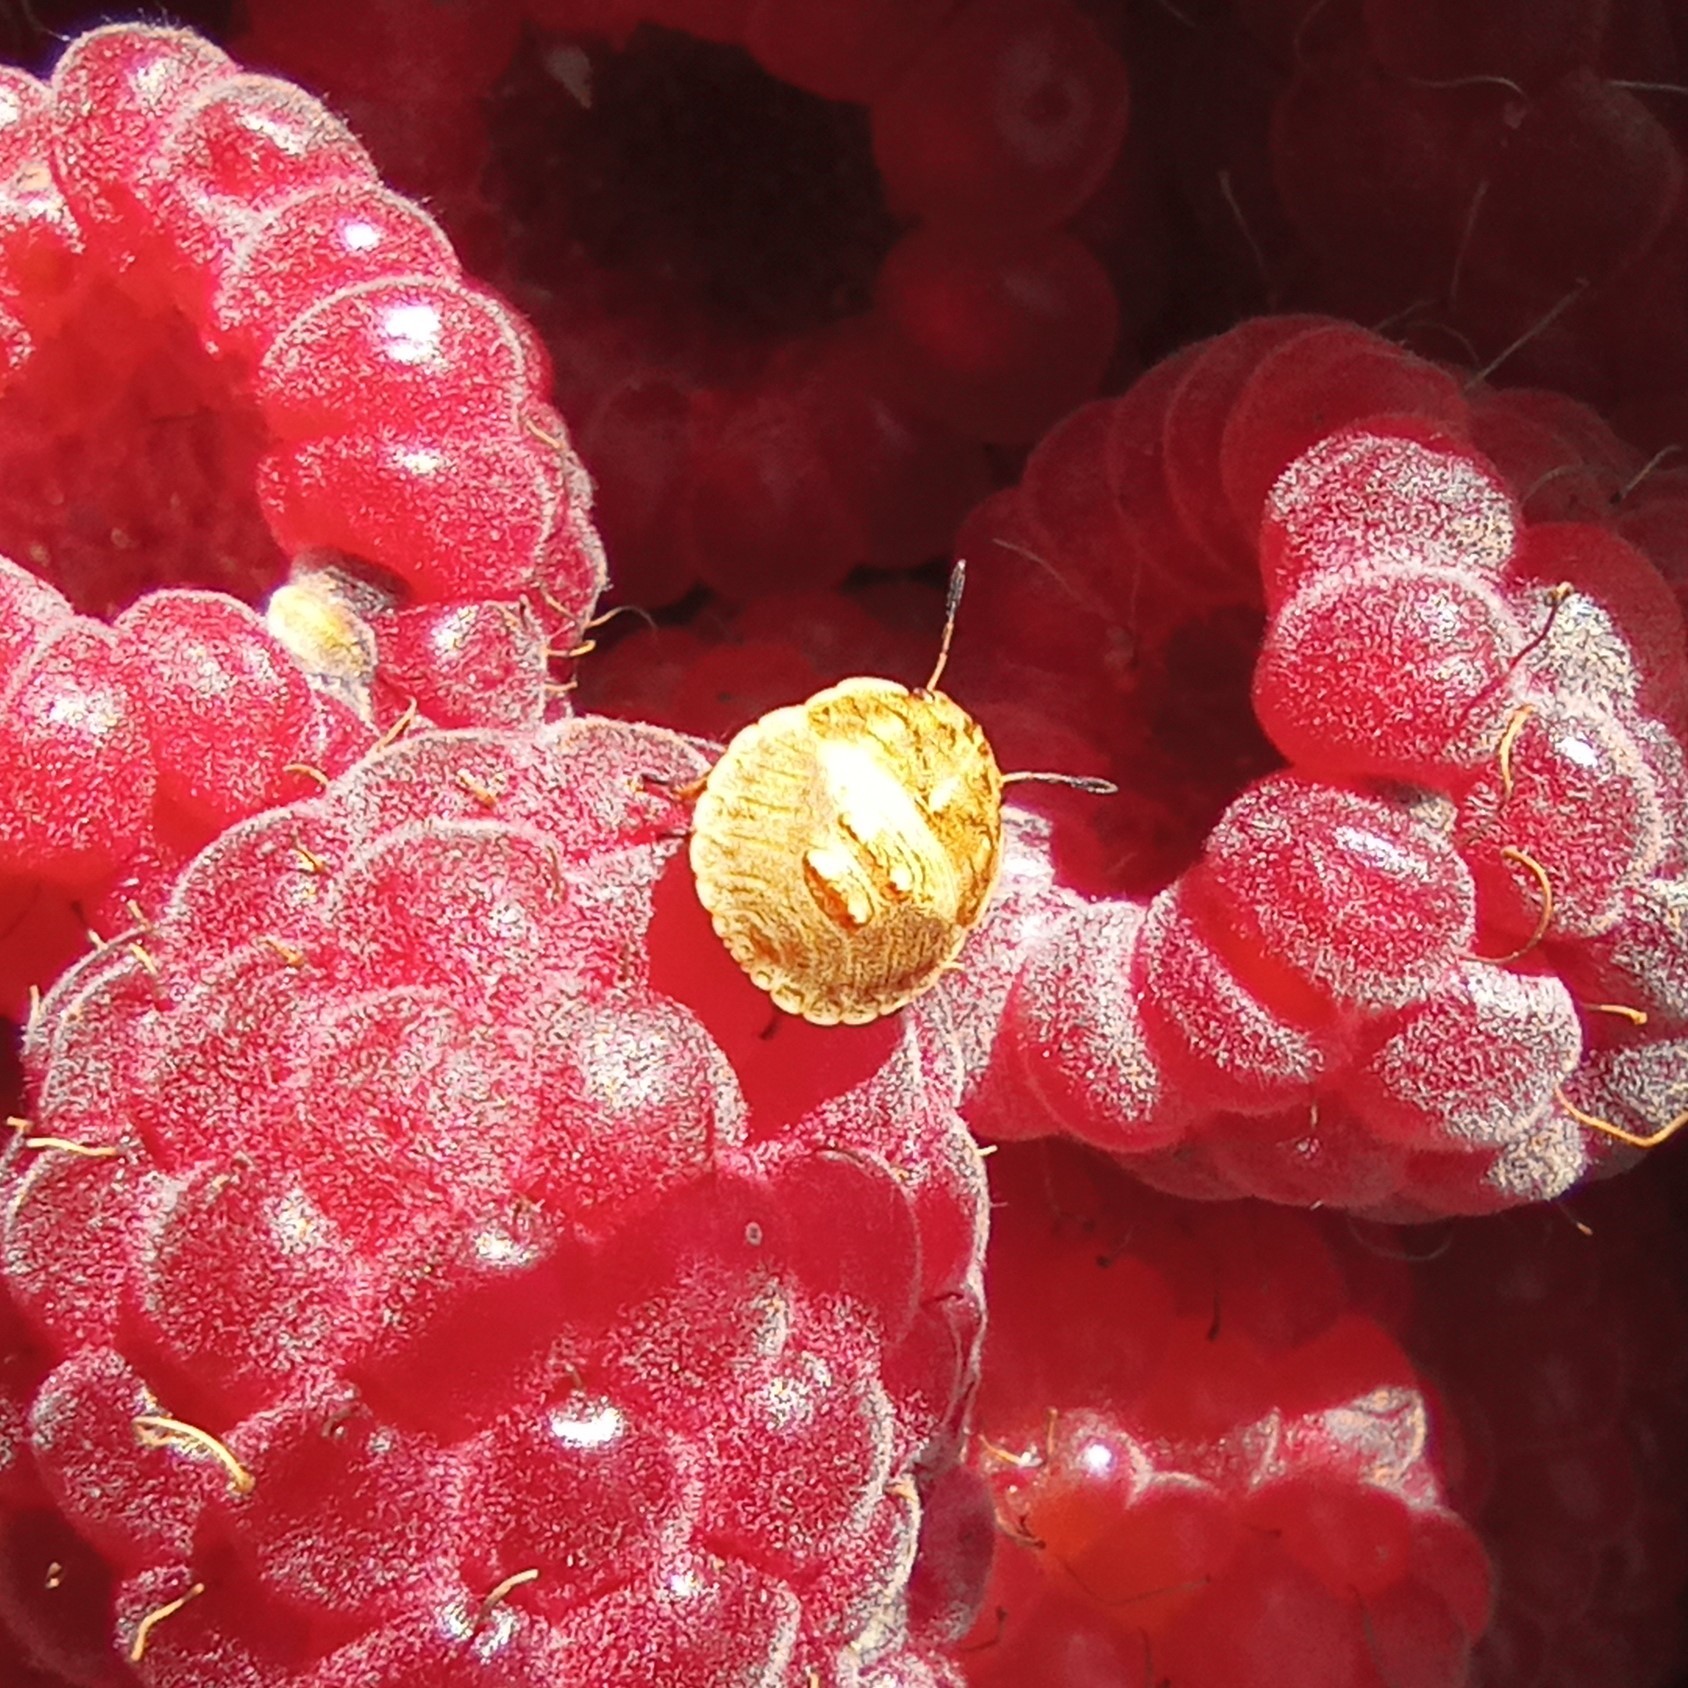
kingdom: Animalia
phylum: Arthropoda
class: Insecta
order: Hemiptera
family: Pentatomidae
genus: Eysarcoris
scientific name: Eysarcoris aeneus
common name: New forest shieldbug
